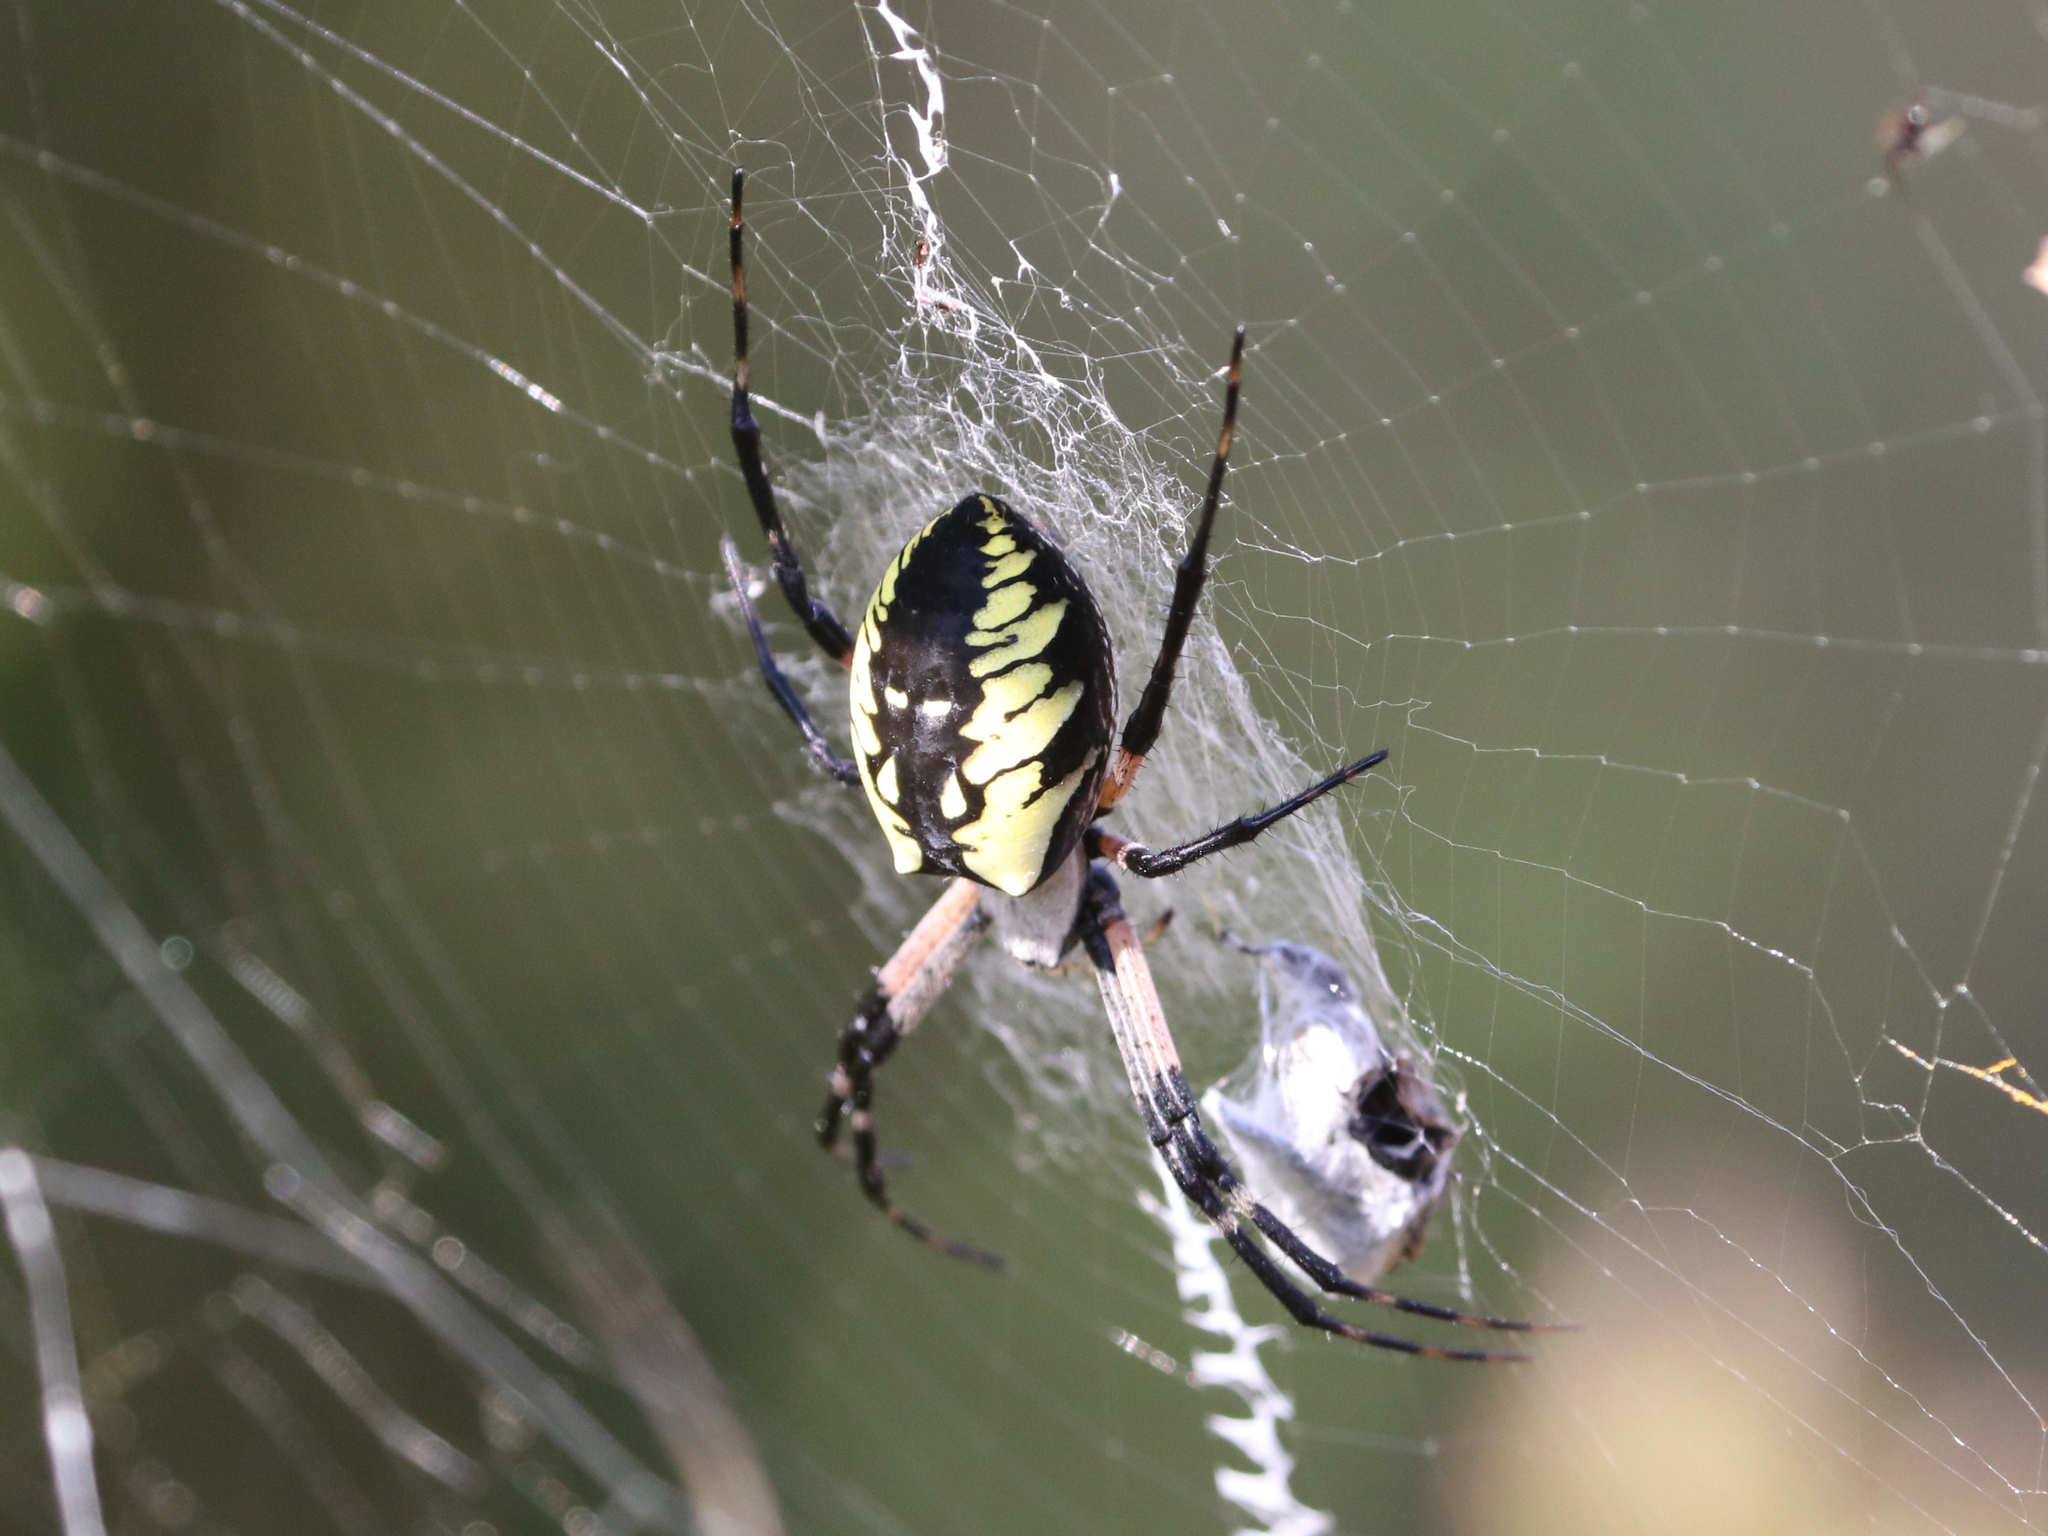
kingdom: Animalia
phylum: Arthropoda
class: Arachnida
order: Araneae
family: Araneidae
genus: Argiope
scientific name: Argiope aurantia
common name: Orb weavers
